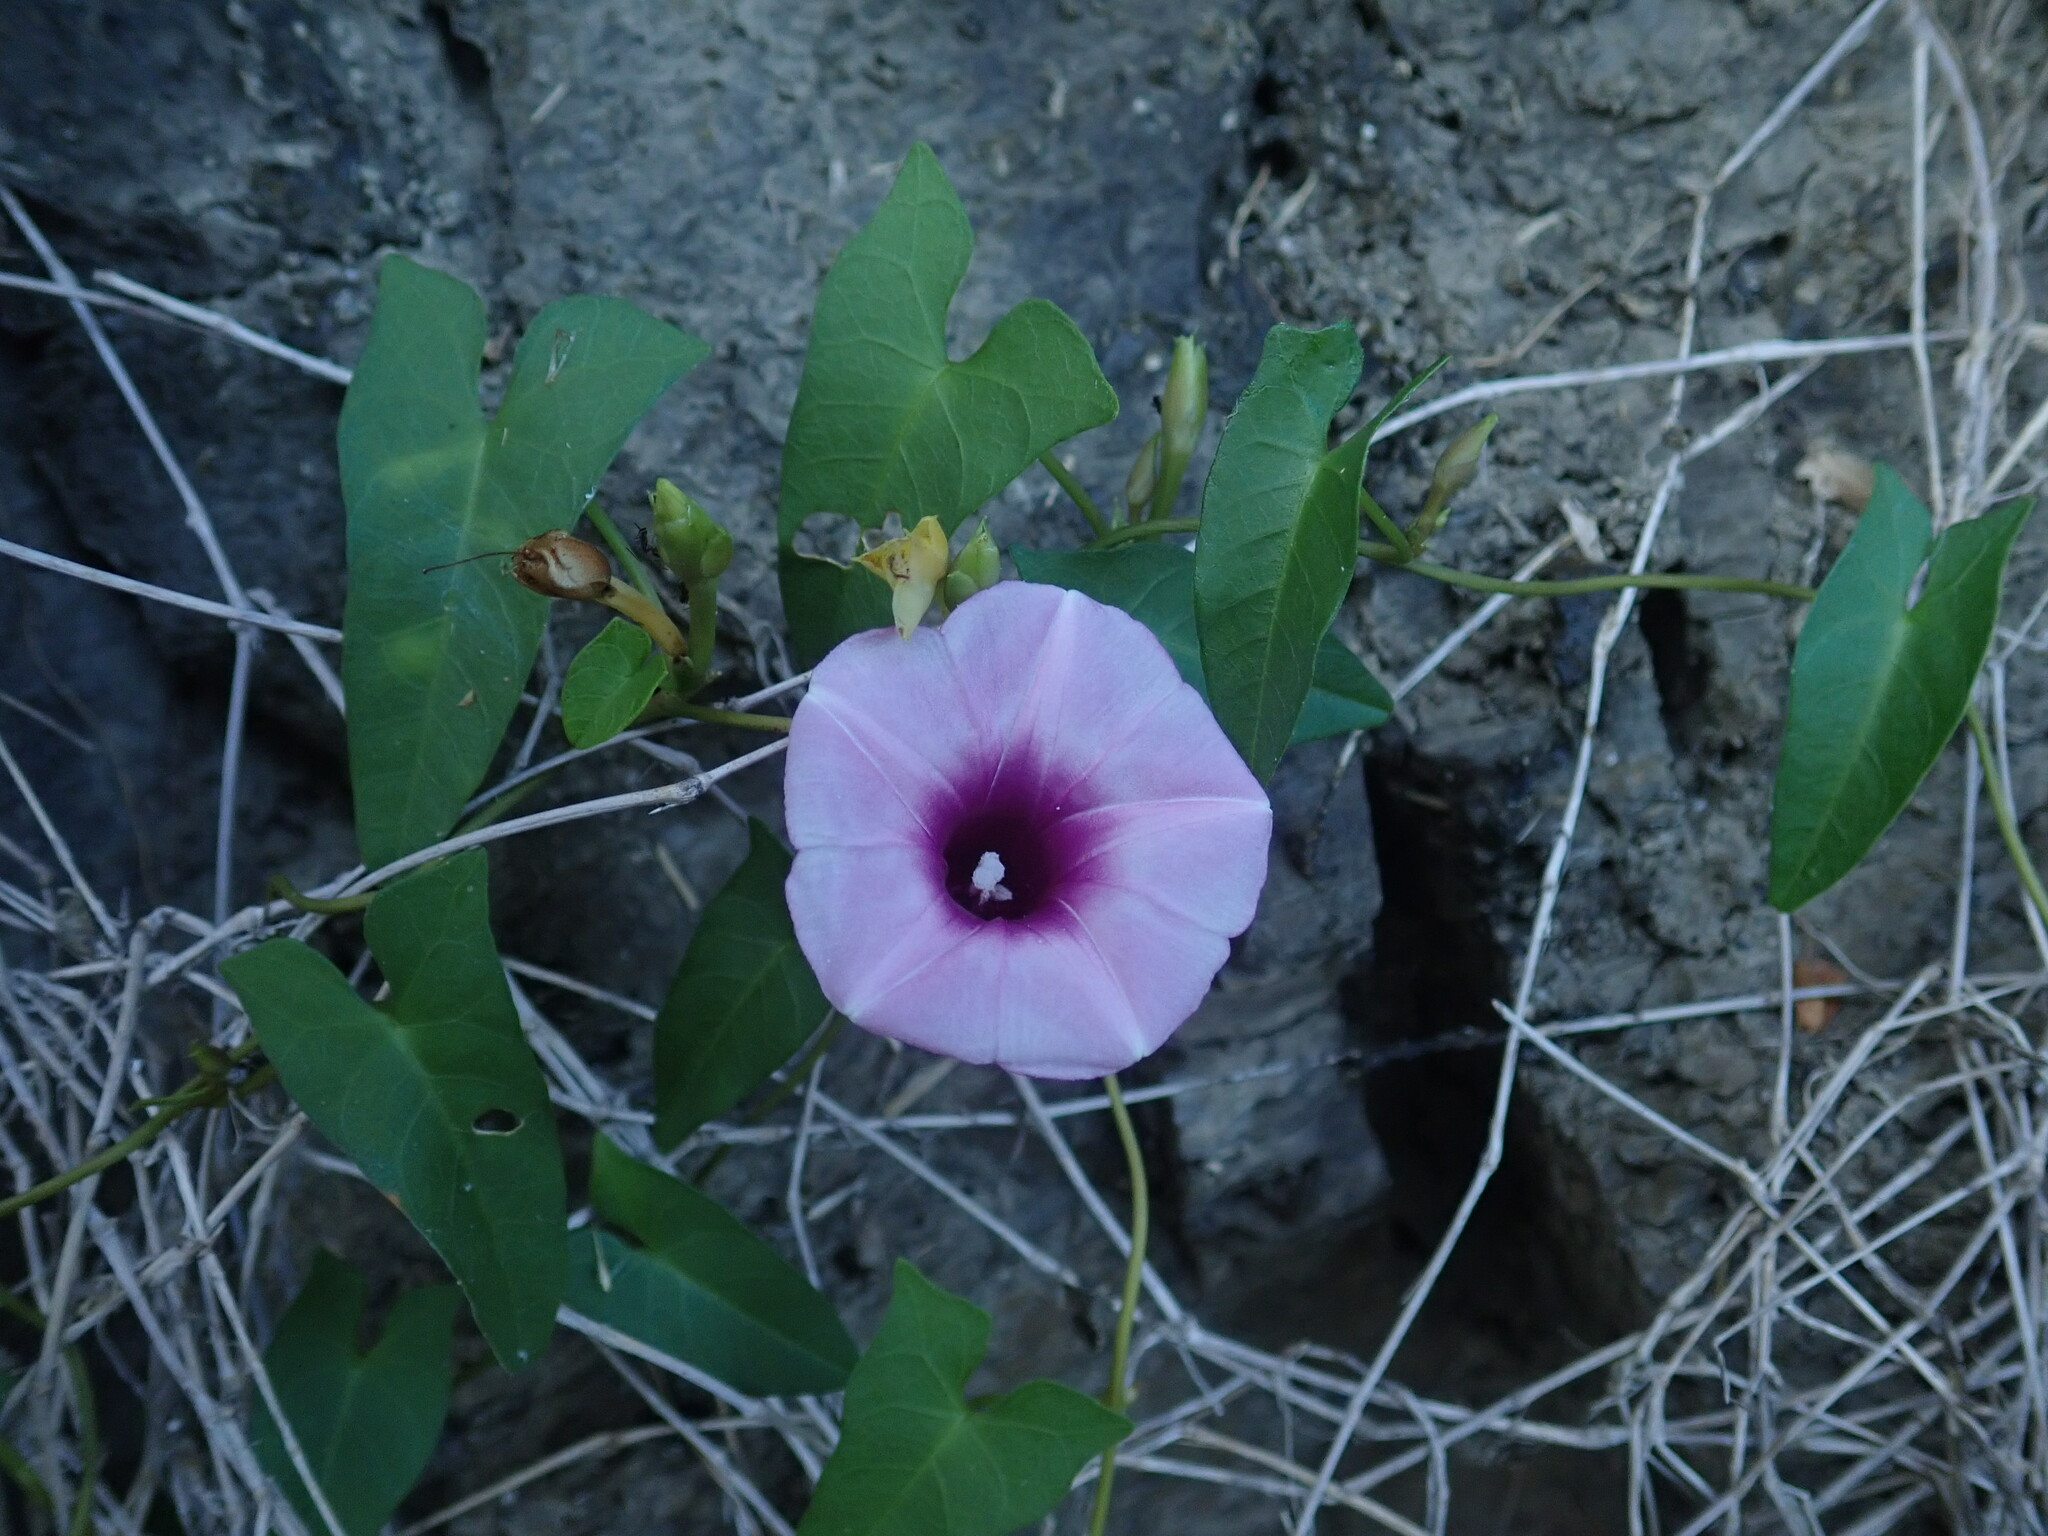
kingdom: Plantae
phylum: Tracheophyta
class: Magnoliopsida
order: Solanales
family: Convolvulaceae
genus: Ipomoea
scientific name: Ipomoea littoralis
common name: Coastal morning glory
